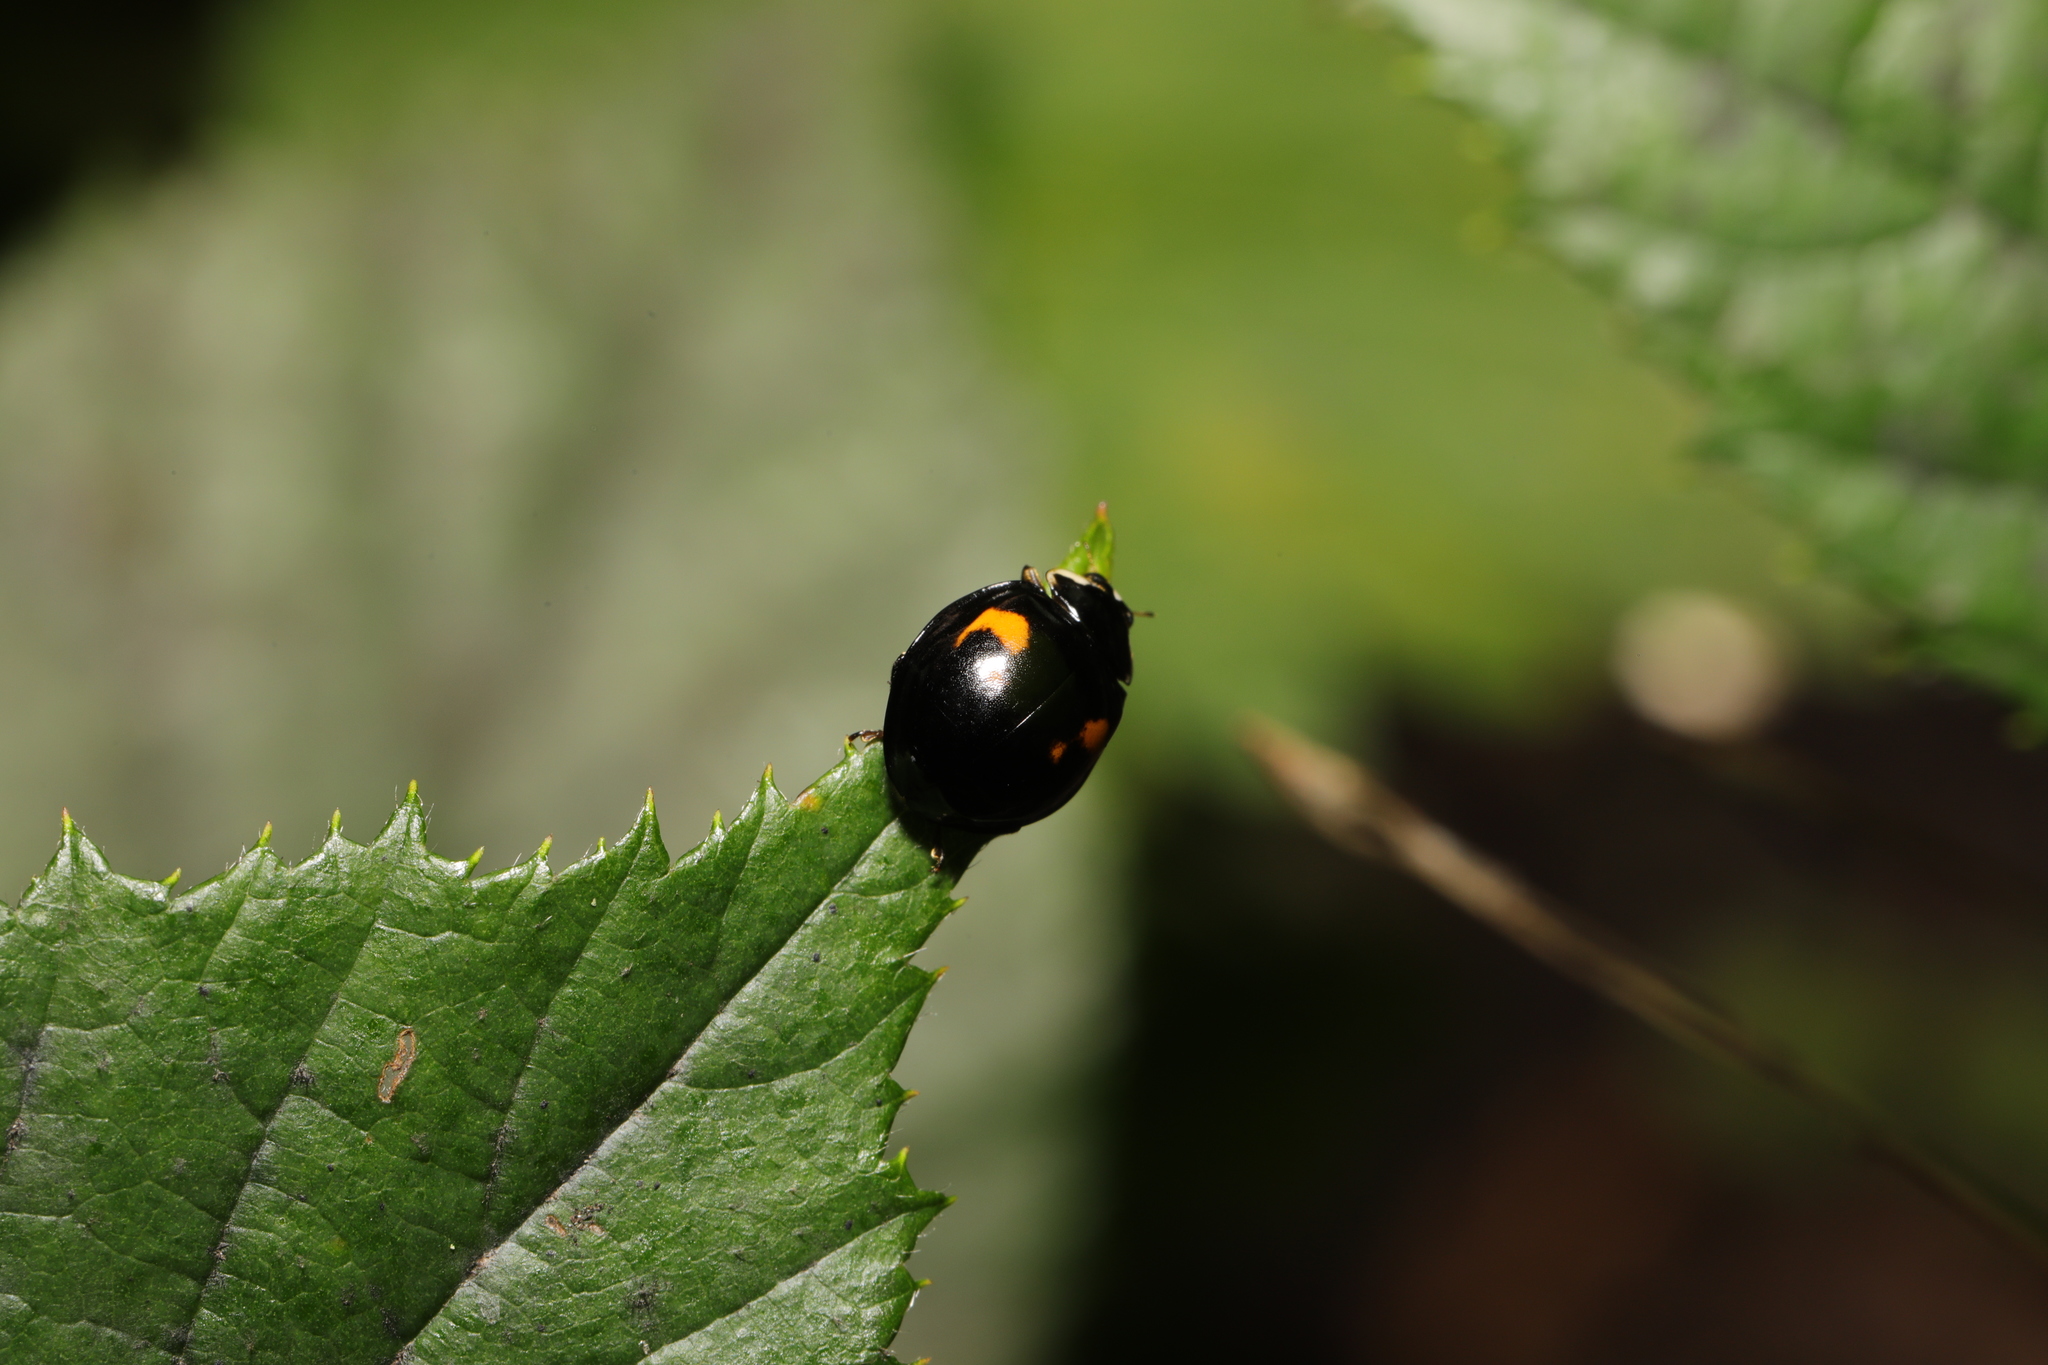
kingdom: Animalia
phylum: Arthropoda
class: Insecta
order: Coleoptera
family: Coccinellidae
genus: Harmonia
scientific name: Harmonia axyridis
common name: Harlequin ladybird
